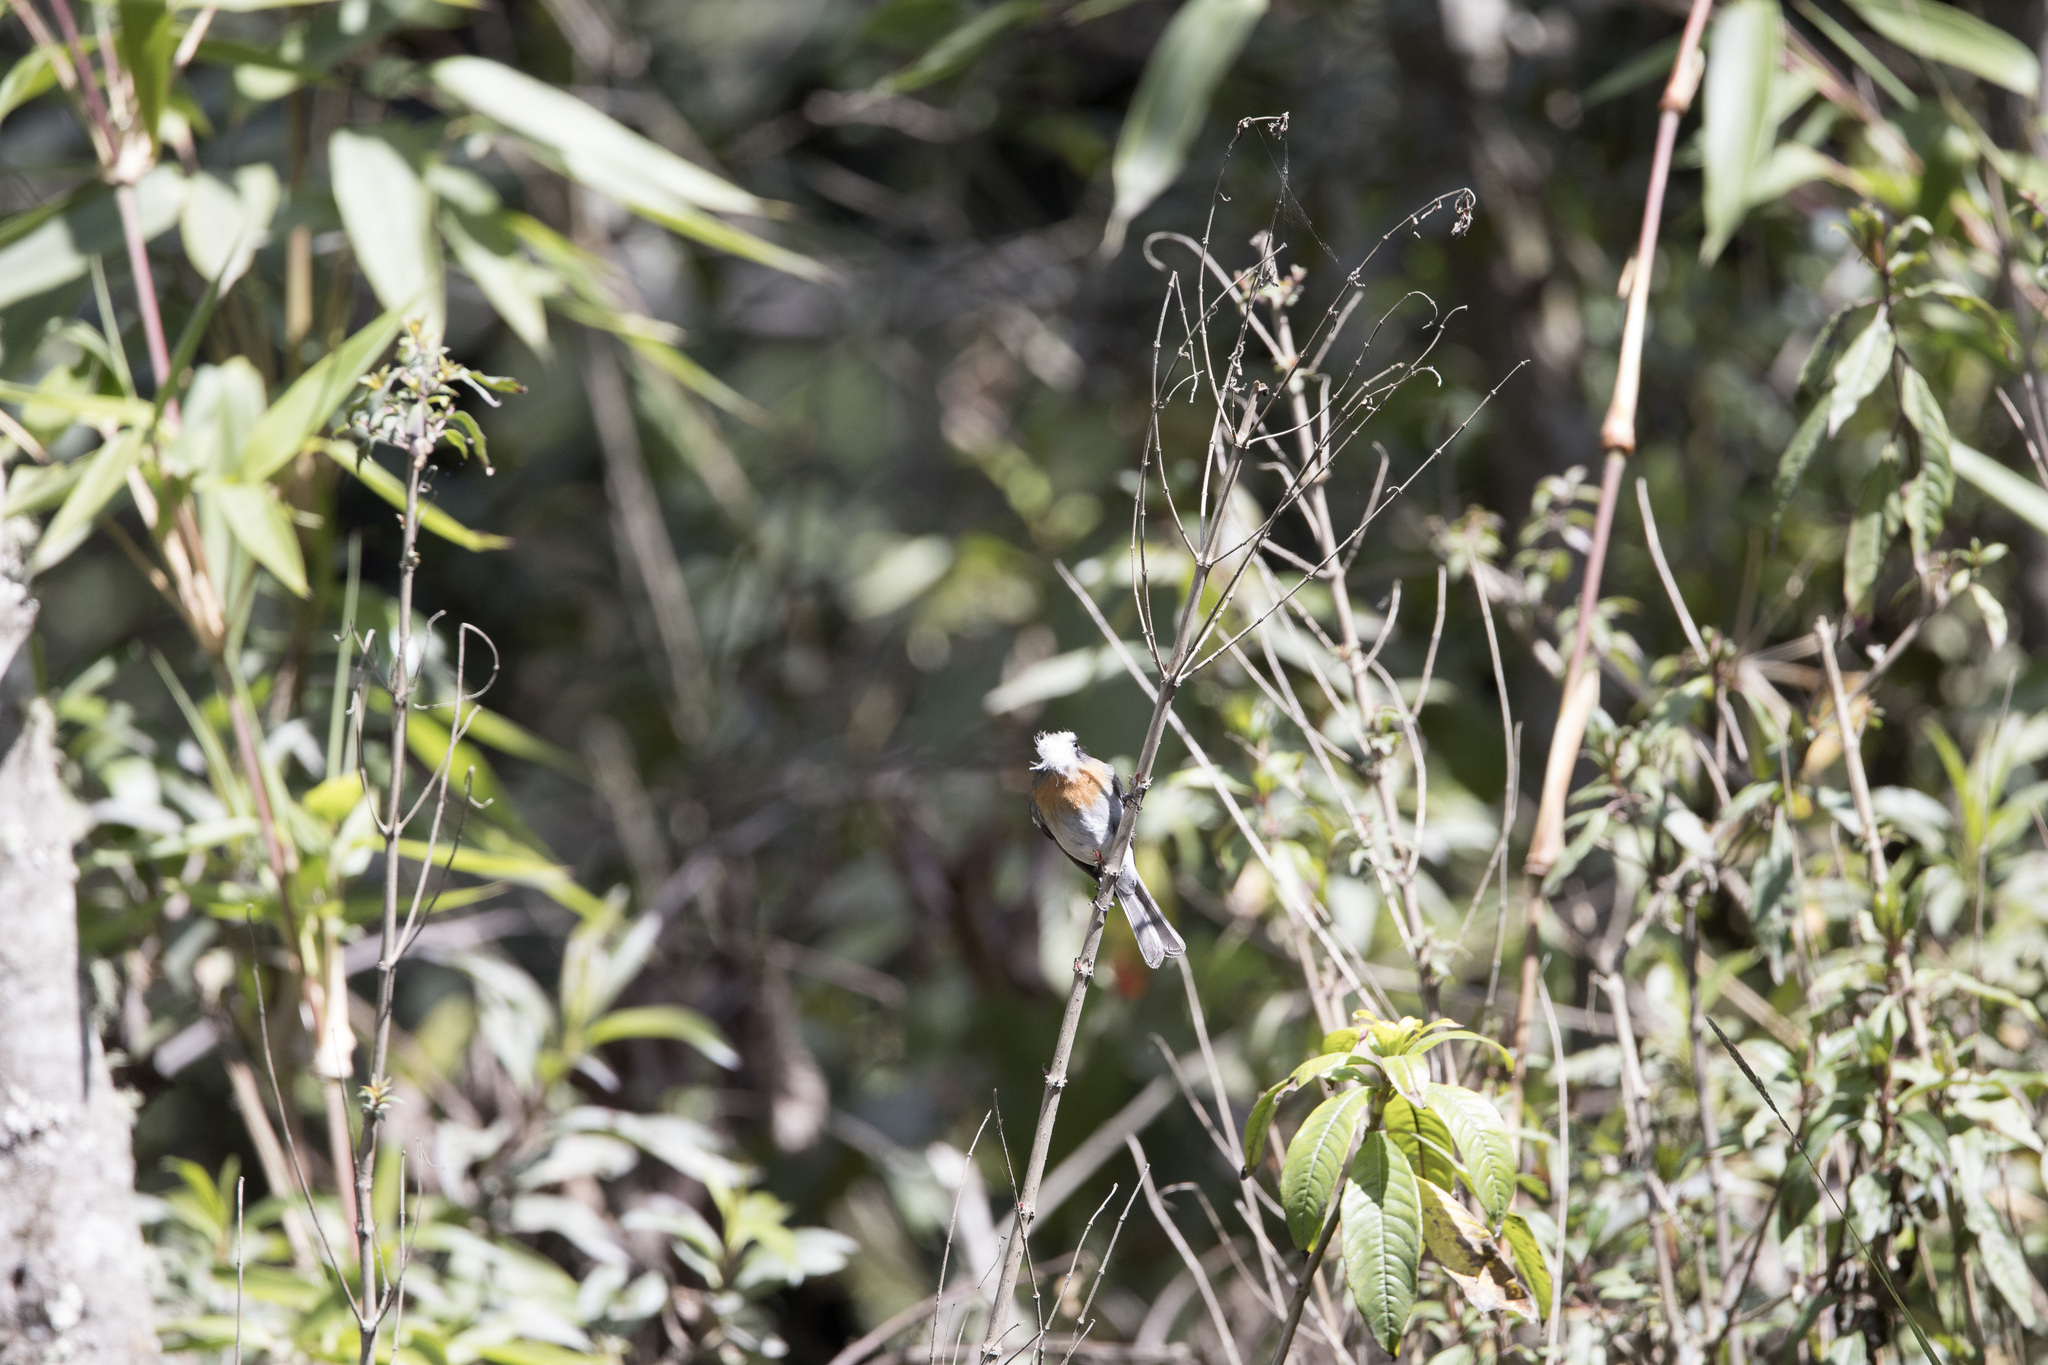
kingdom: Animalia
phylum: Chordata
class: Aves
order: Passeriformes
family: Tyrannidae
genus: Ochthoeca
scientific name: Ochthoeca rufipectoralis
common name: Rufous-breasted chat-tyrant
